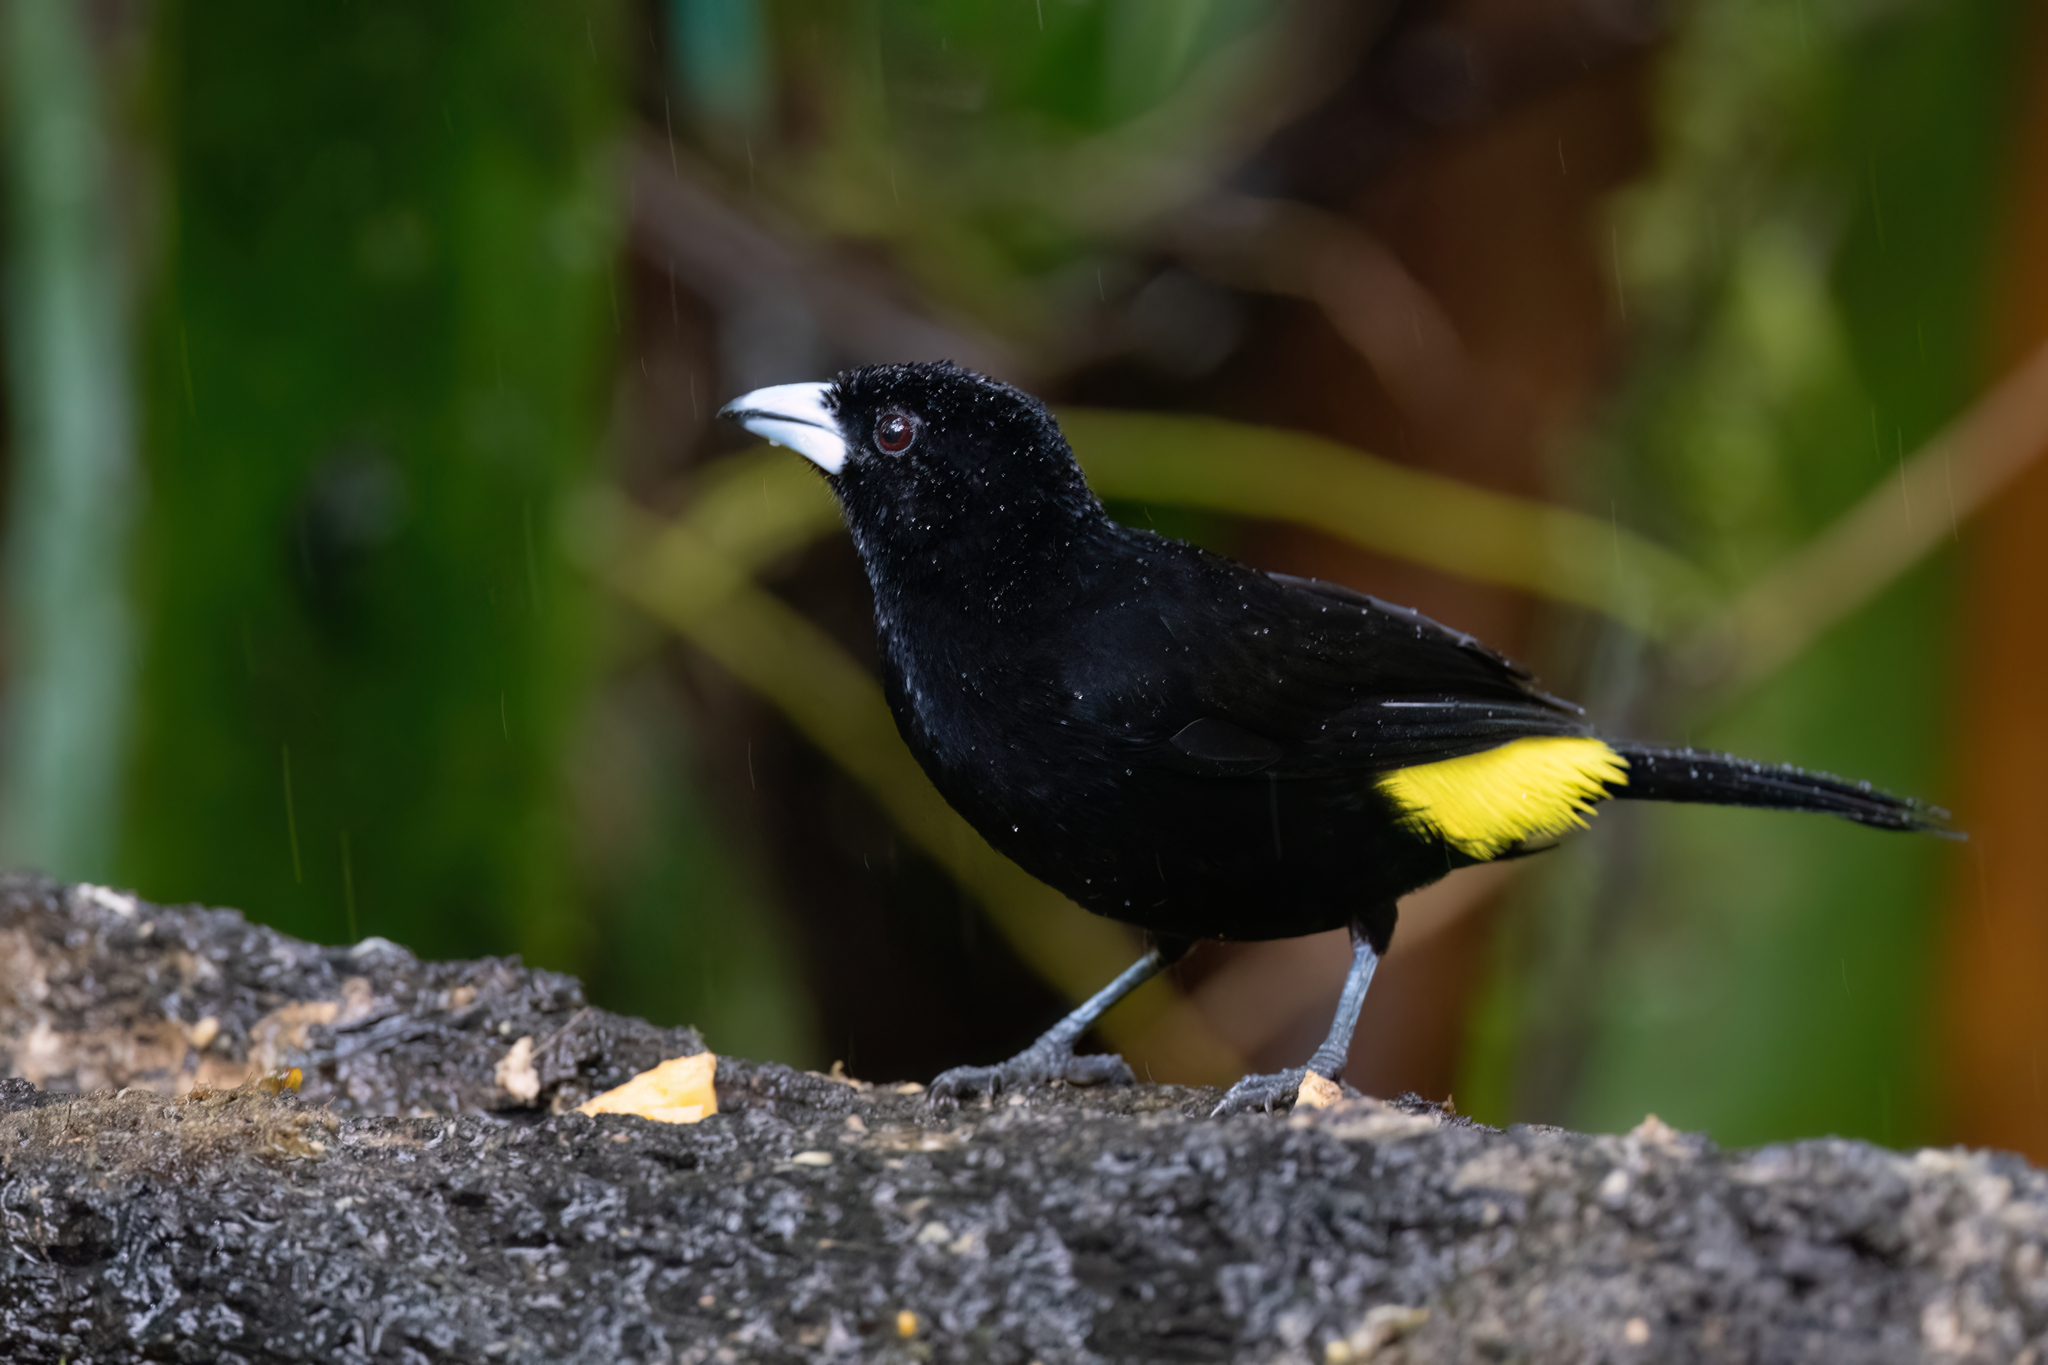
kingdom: Animalia
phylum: Chordata
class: Aves
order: Passeriformes
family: Thraupidae
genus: Ramphocelus
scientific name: Ramphocelus flammigerus
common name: Flame-rumped tanager
